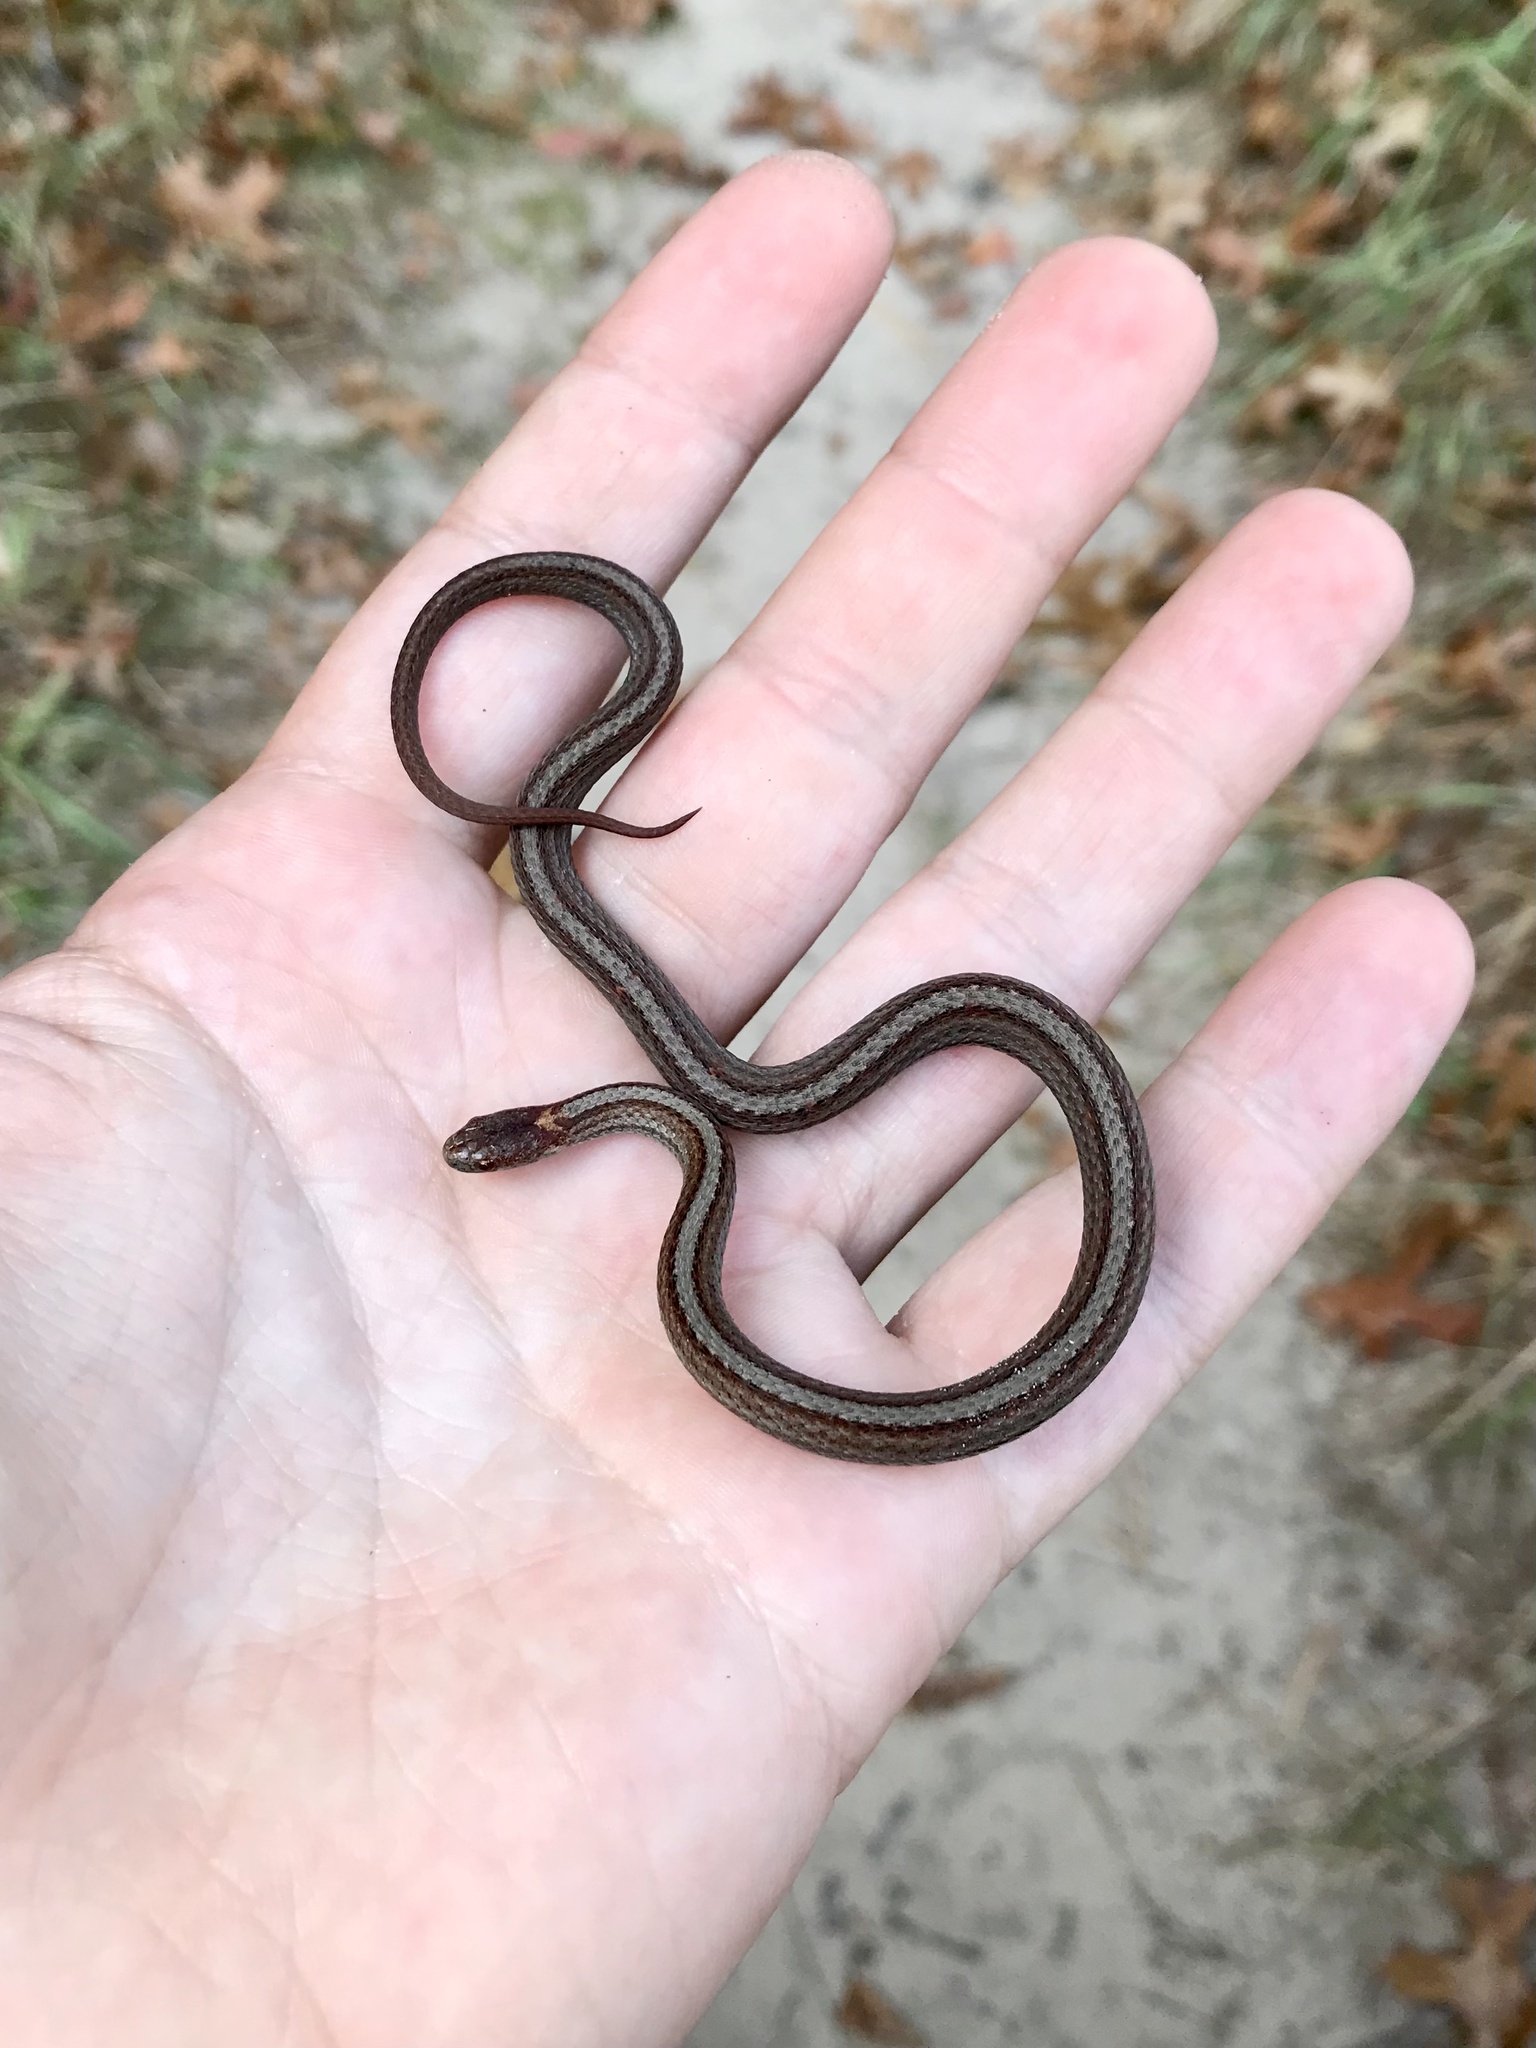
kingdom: Animalia
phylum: Chordata
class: Squamata
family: Colubridae
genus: Storeria
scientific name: Storeria occipitomaculata
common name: Redbelly snake
